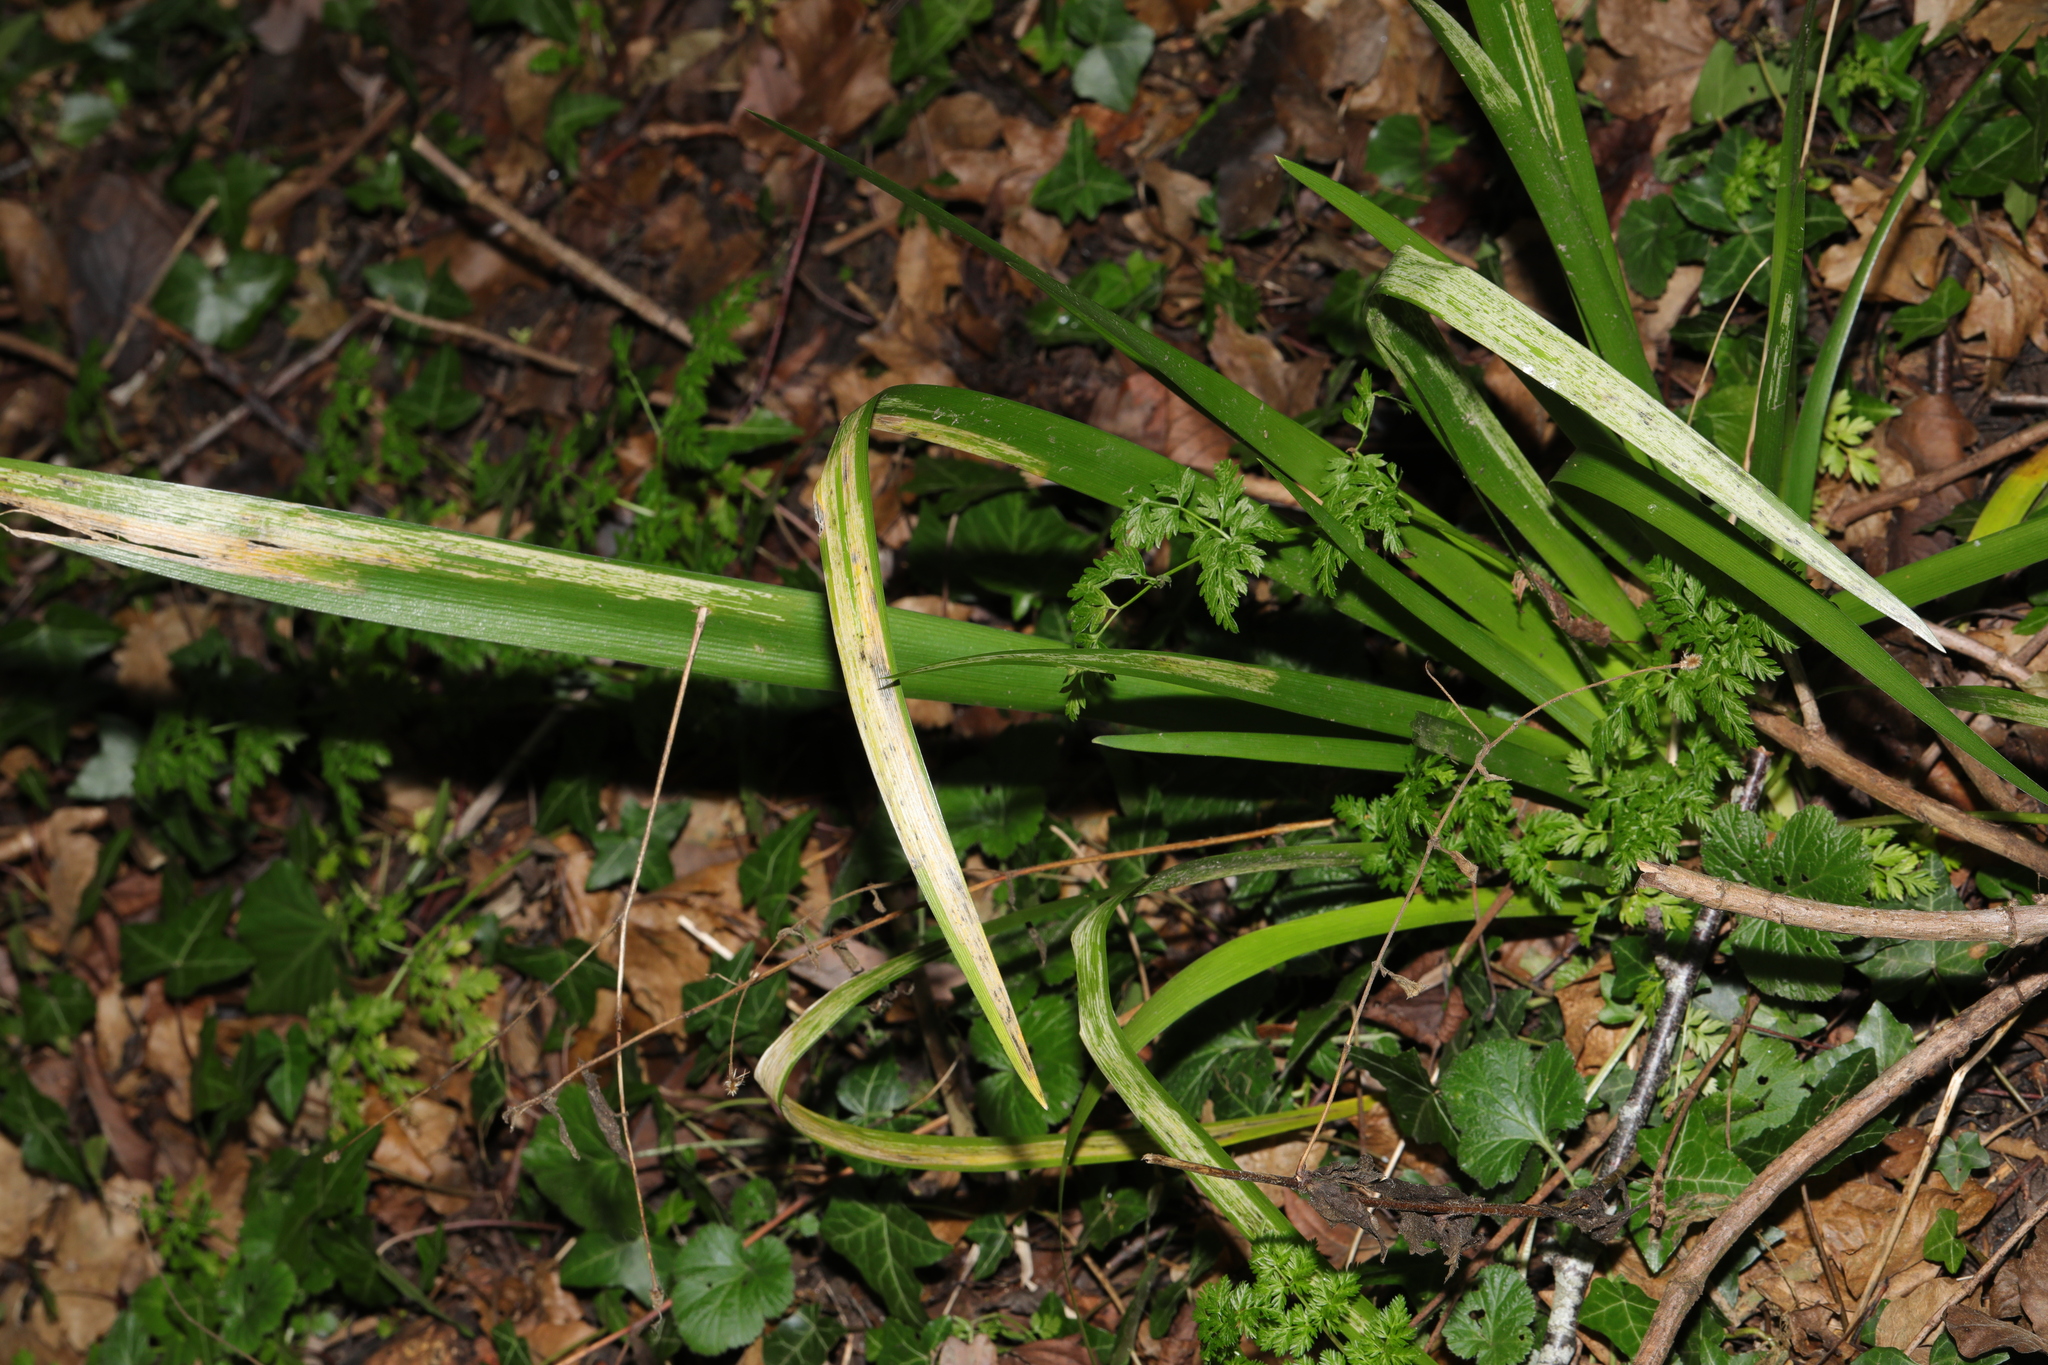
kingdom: Plantae
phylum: Tracheophyta
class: Liliopsida
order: Asparagales
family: Iridaceae
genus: Iris
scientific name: Iris foetidissima
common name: Stinking iris
